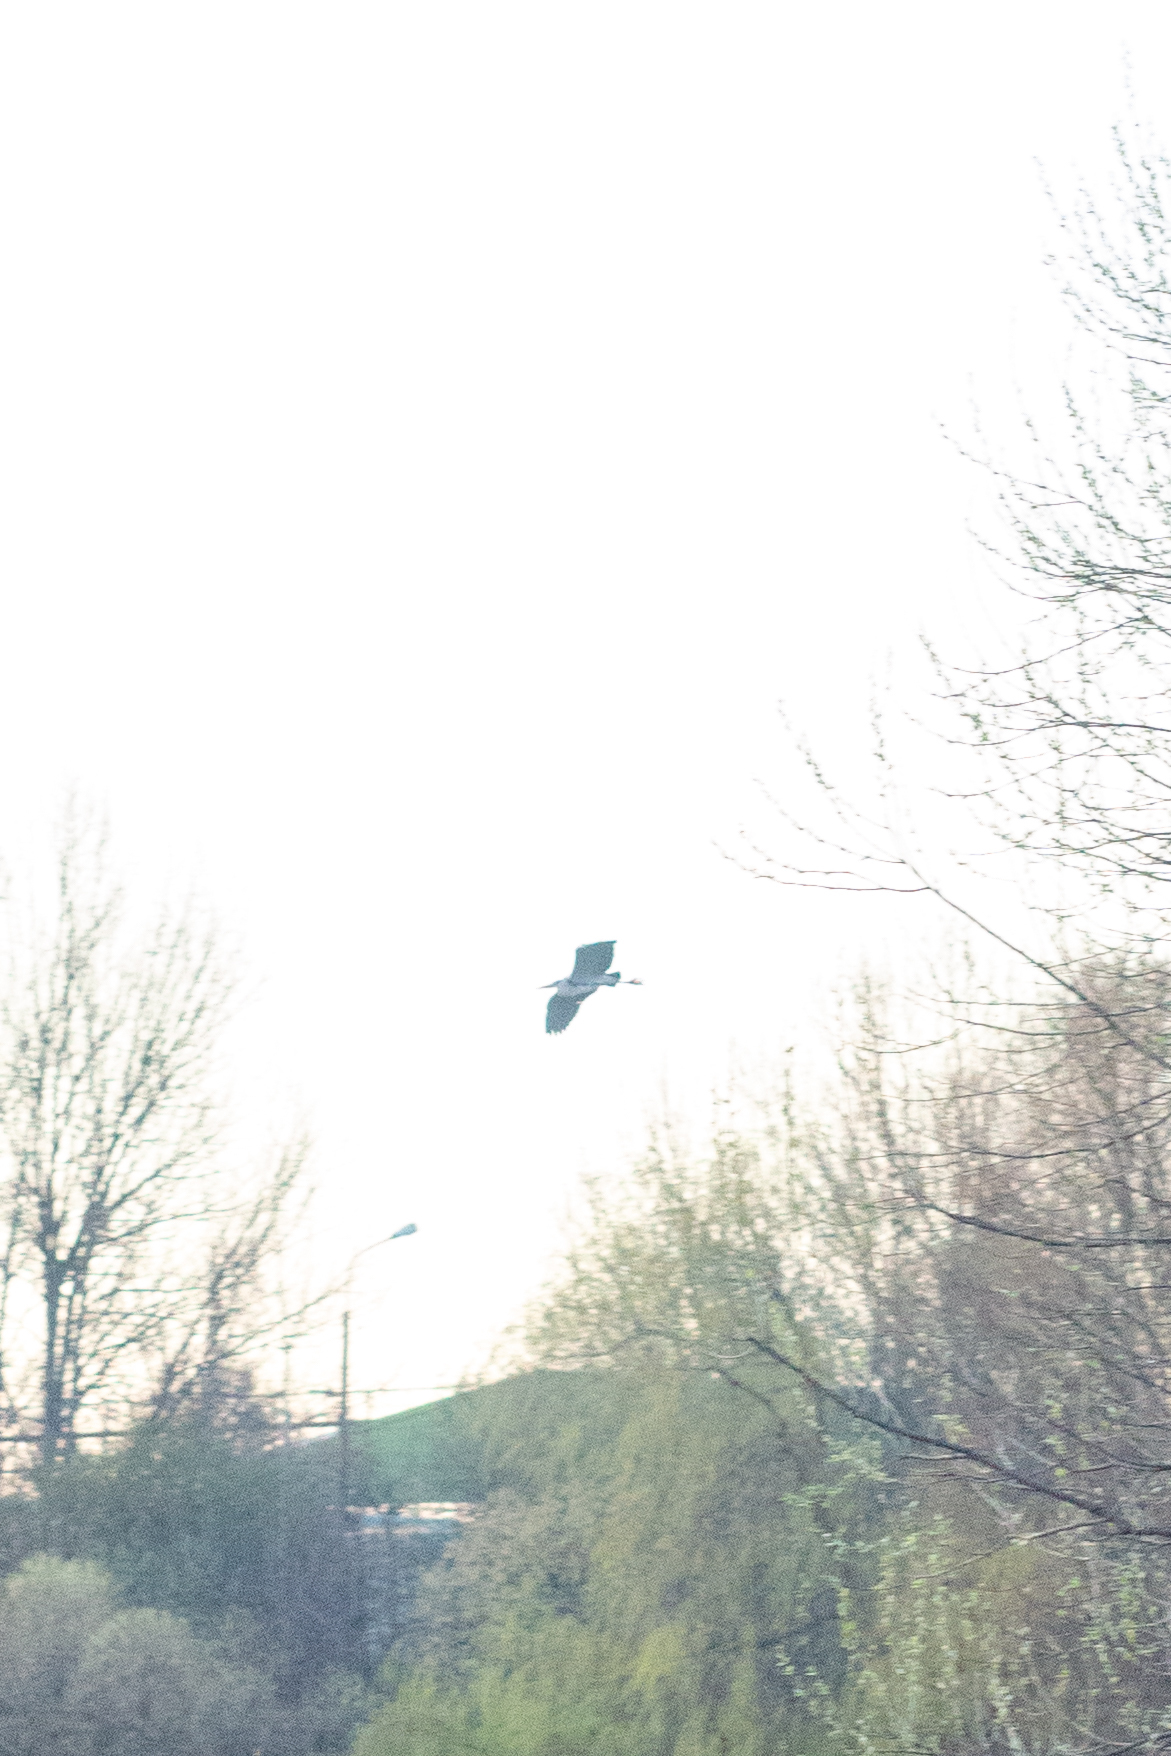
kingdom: Animalia
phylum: Chordata
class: Aves
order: Pelecaniformes
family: Ardeidae
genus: Ardea
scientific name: Ardea cinerea
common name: Grey heron
